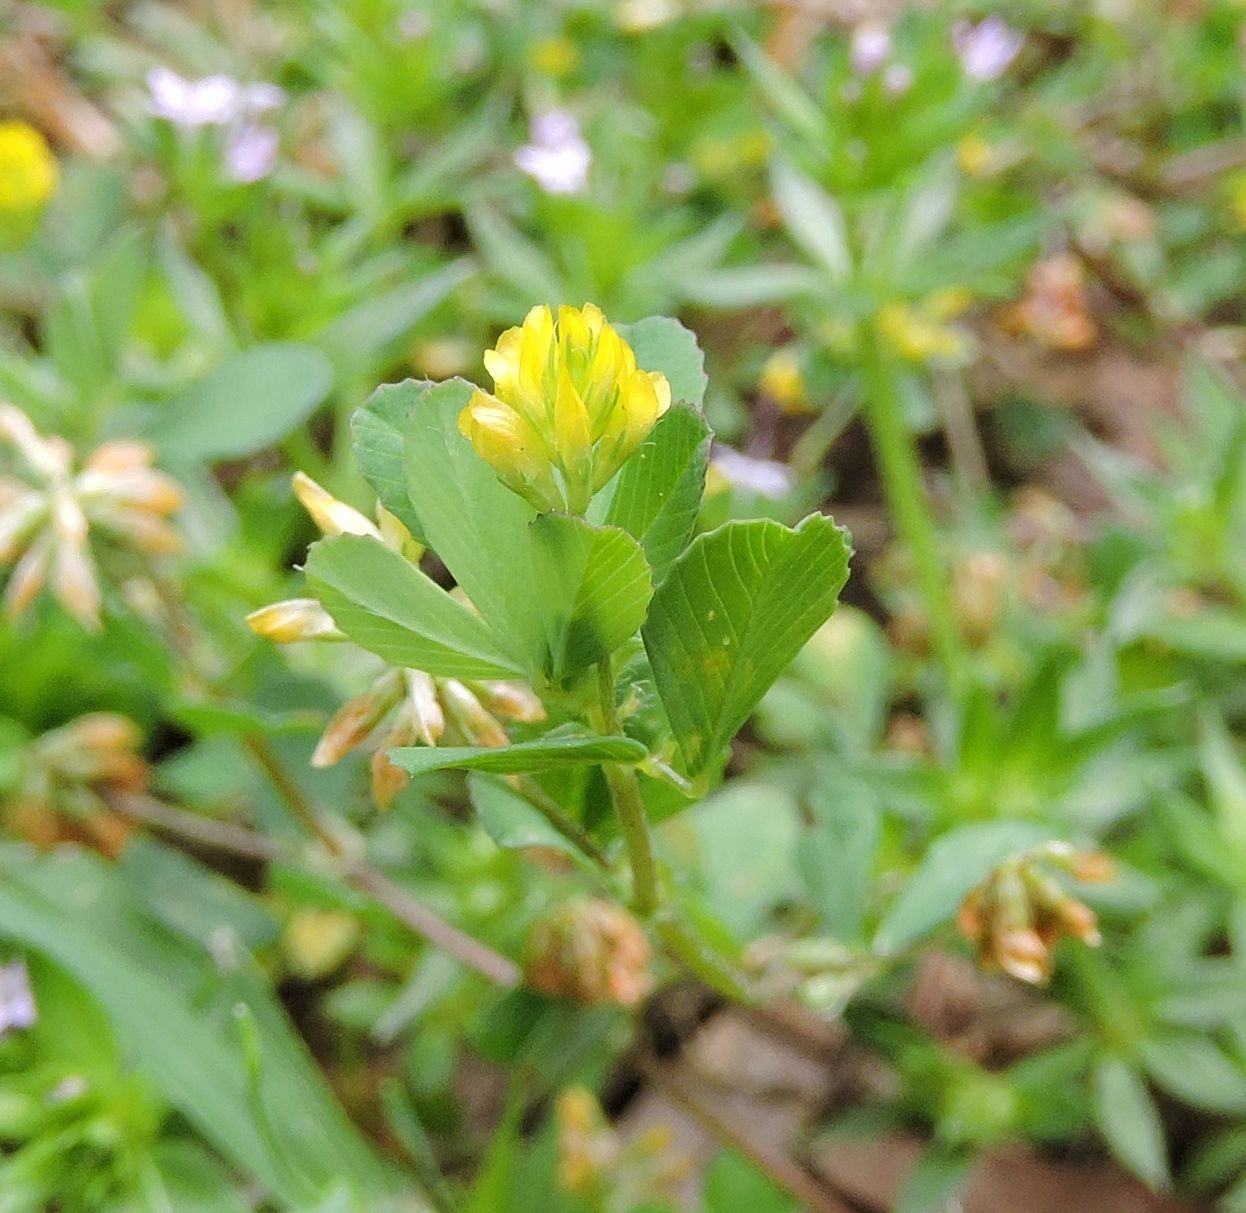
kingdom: Plantae
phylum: Tracheophyta
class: Magnoliopsida
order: Fabales
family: Fabaceae
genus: Trifolium
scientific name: Trifolium dubium
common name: Suckling clover
